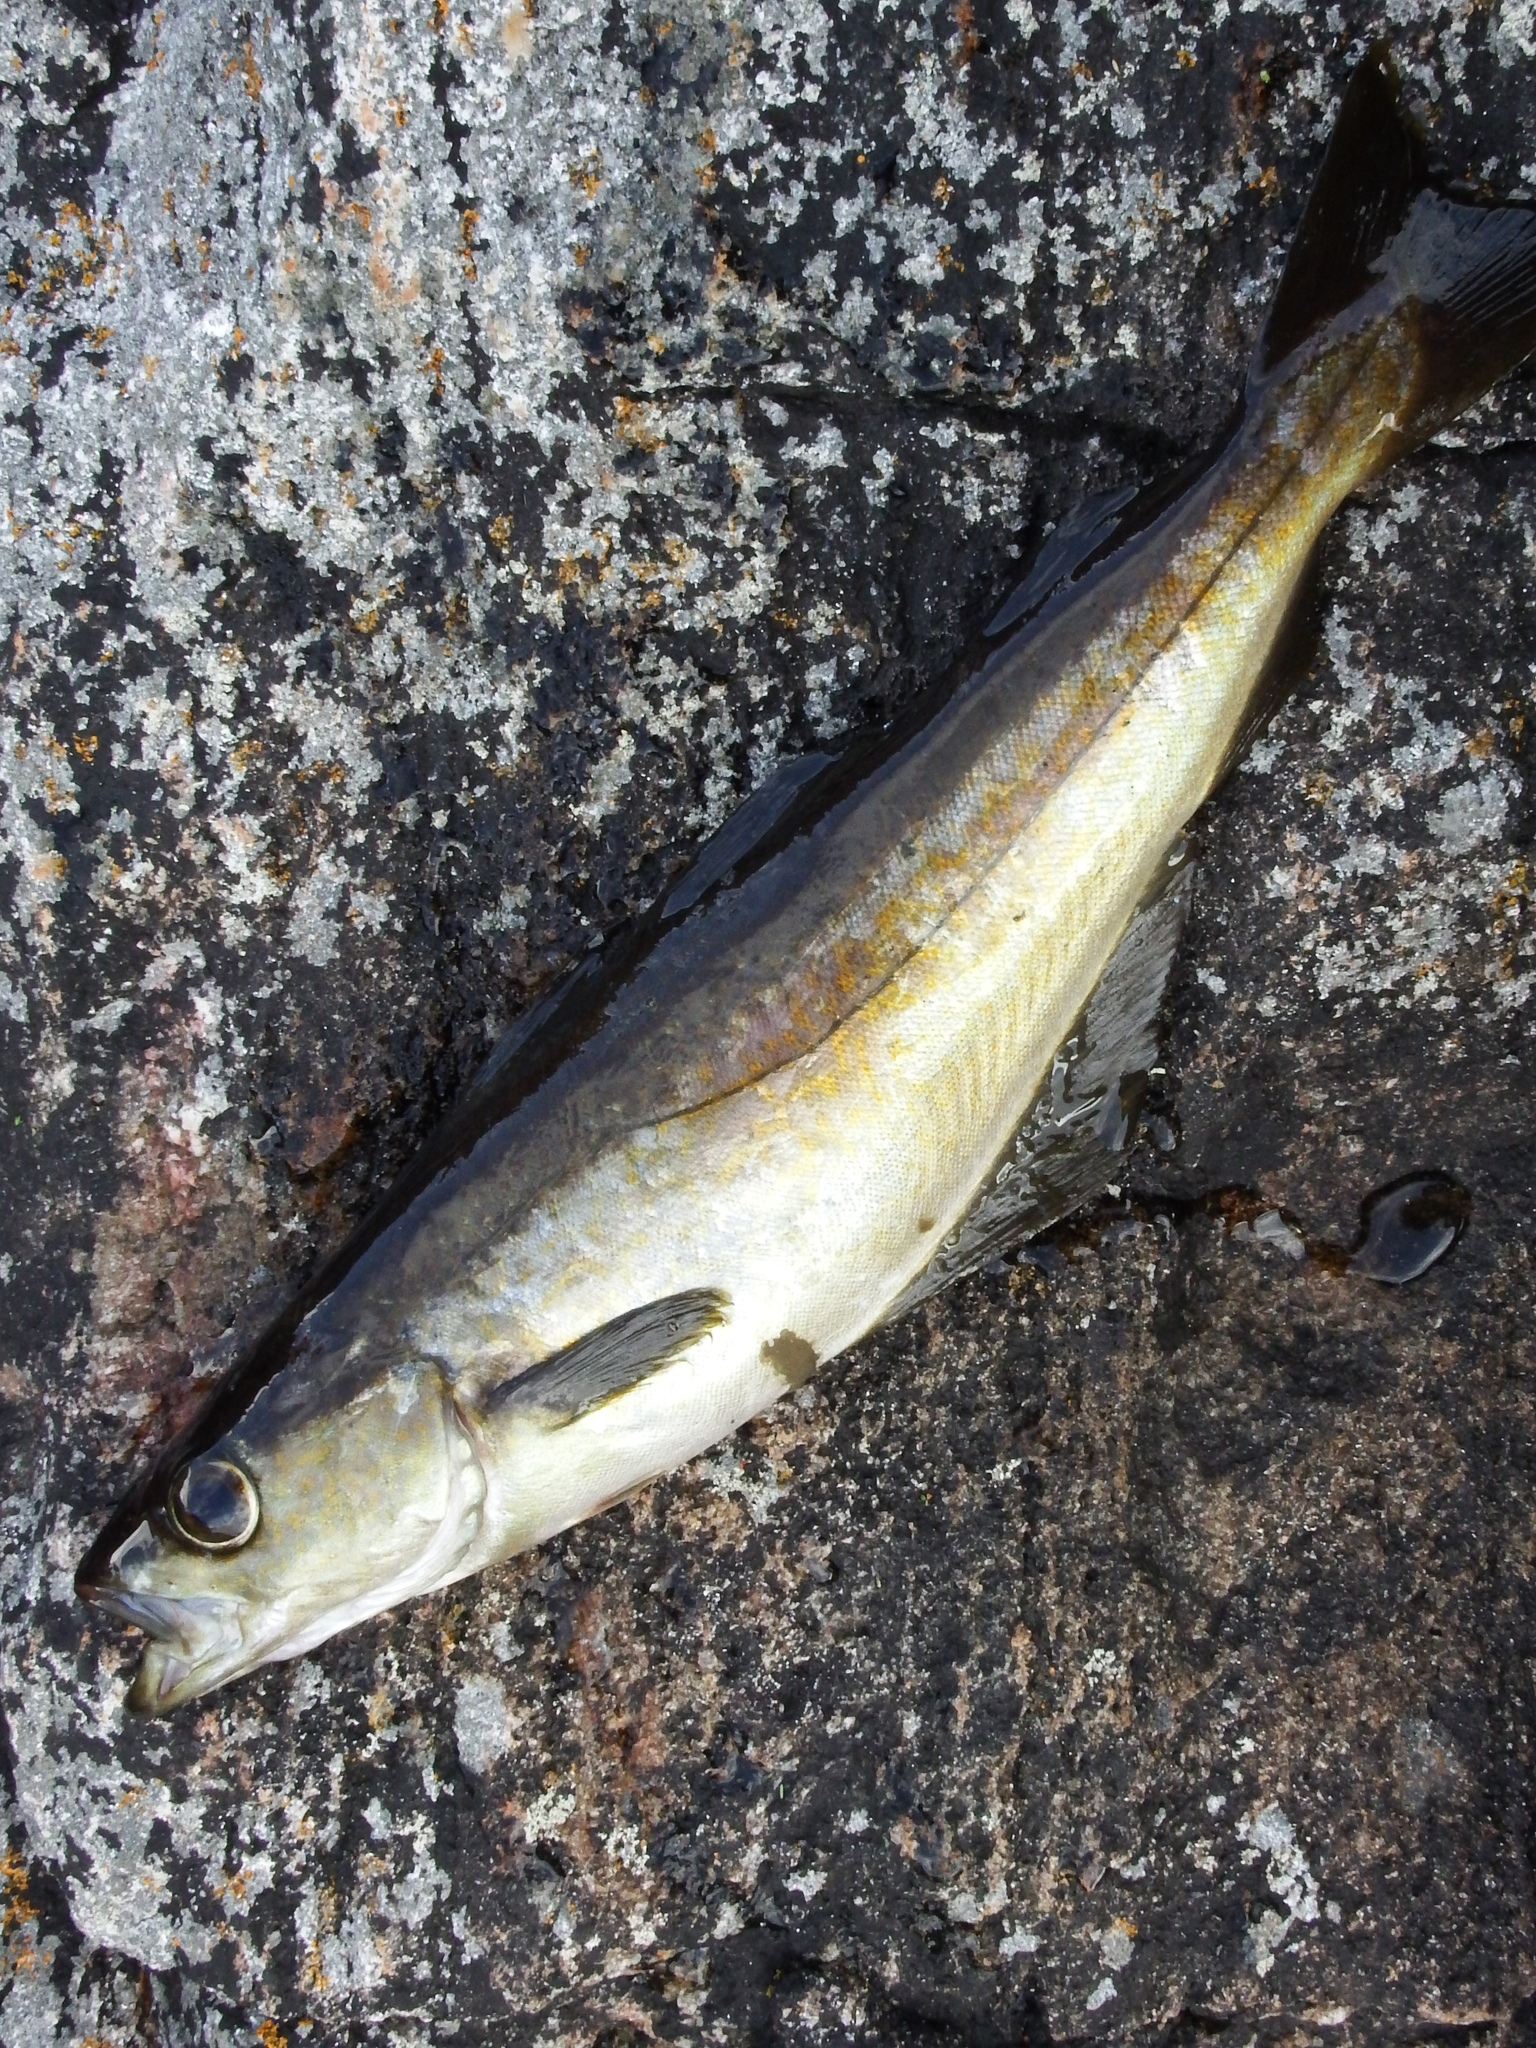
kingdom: Animalia
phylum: Chordata
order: Gadiformes
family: Gadidae
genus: Pollachius
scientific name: Pollachius pollachius
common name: Pollack
